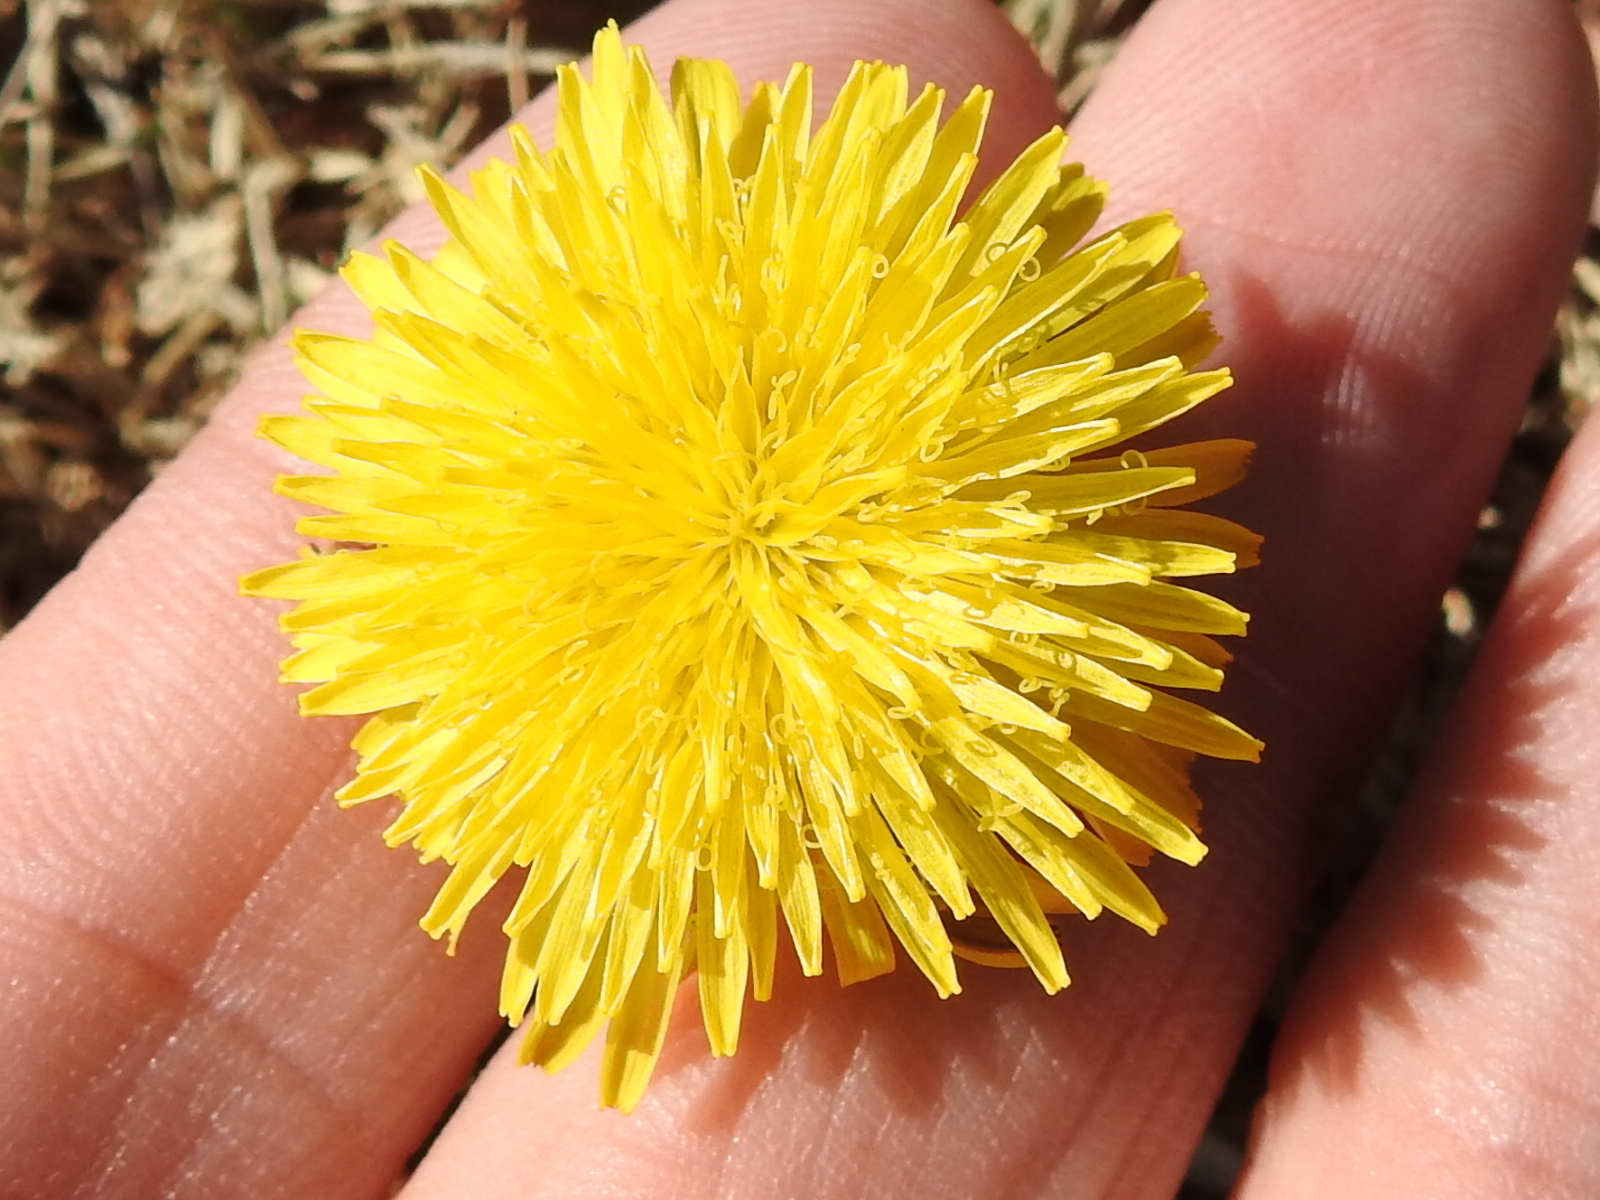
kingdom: Plantae
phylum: Tracheophyta
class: Magnoliopsida
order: Asterales
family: Asteraceae
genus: Taraxacum
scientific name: Taraxacum officinale
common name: Common dandelion
